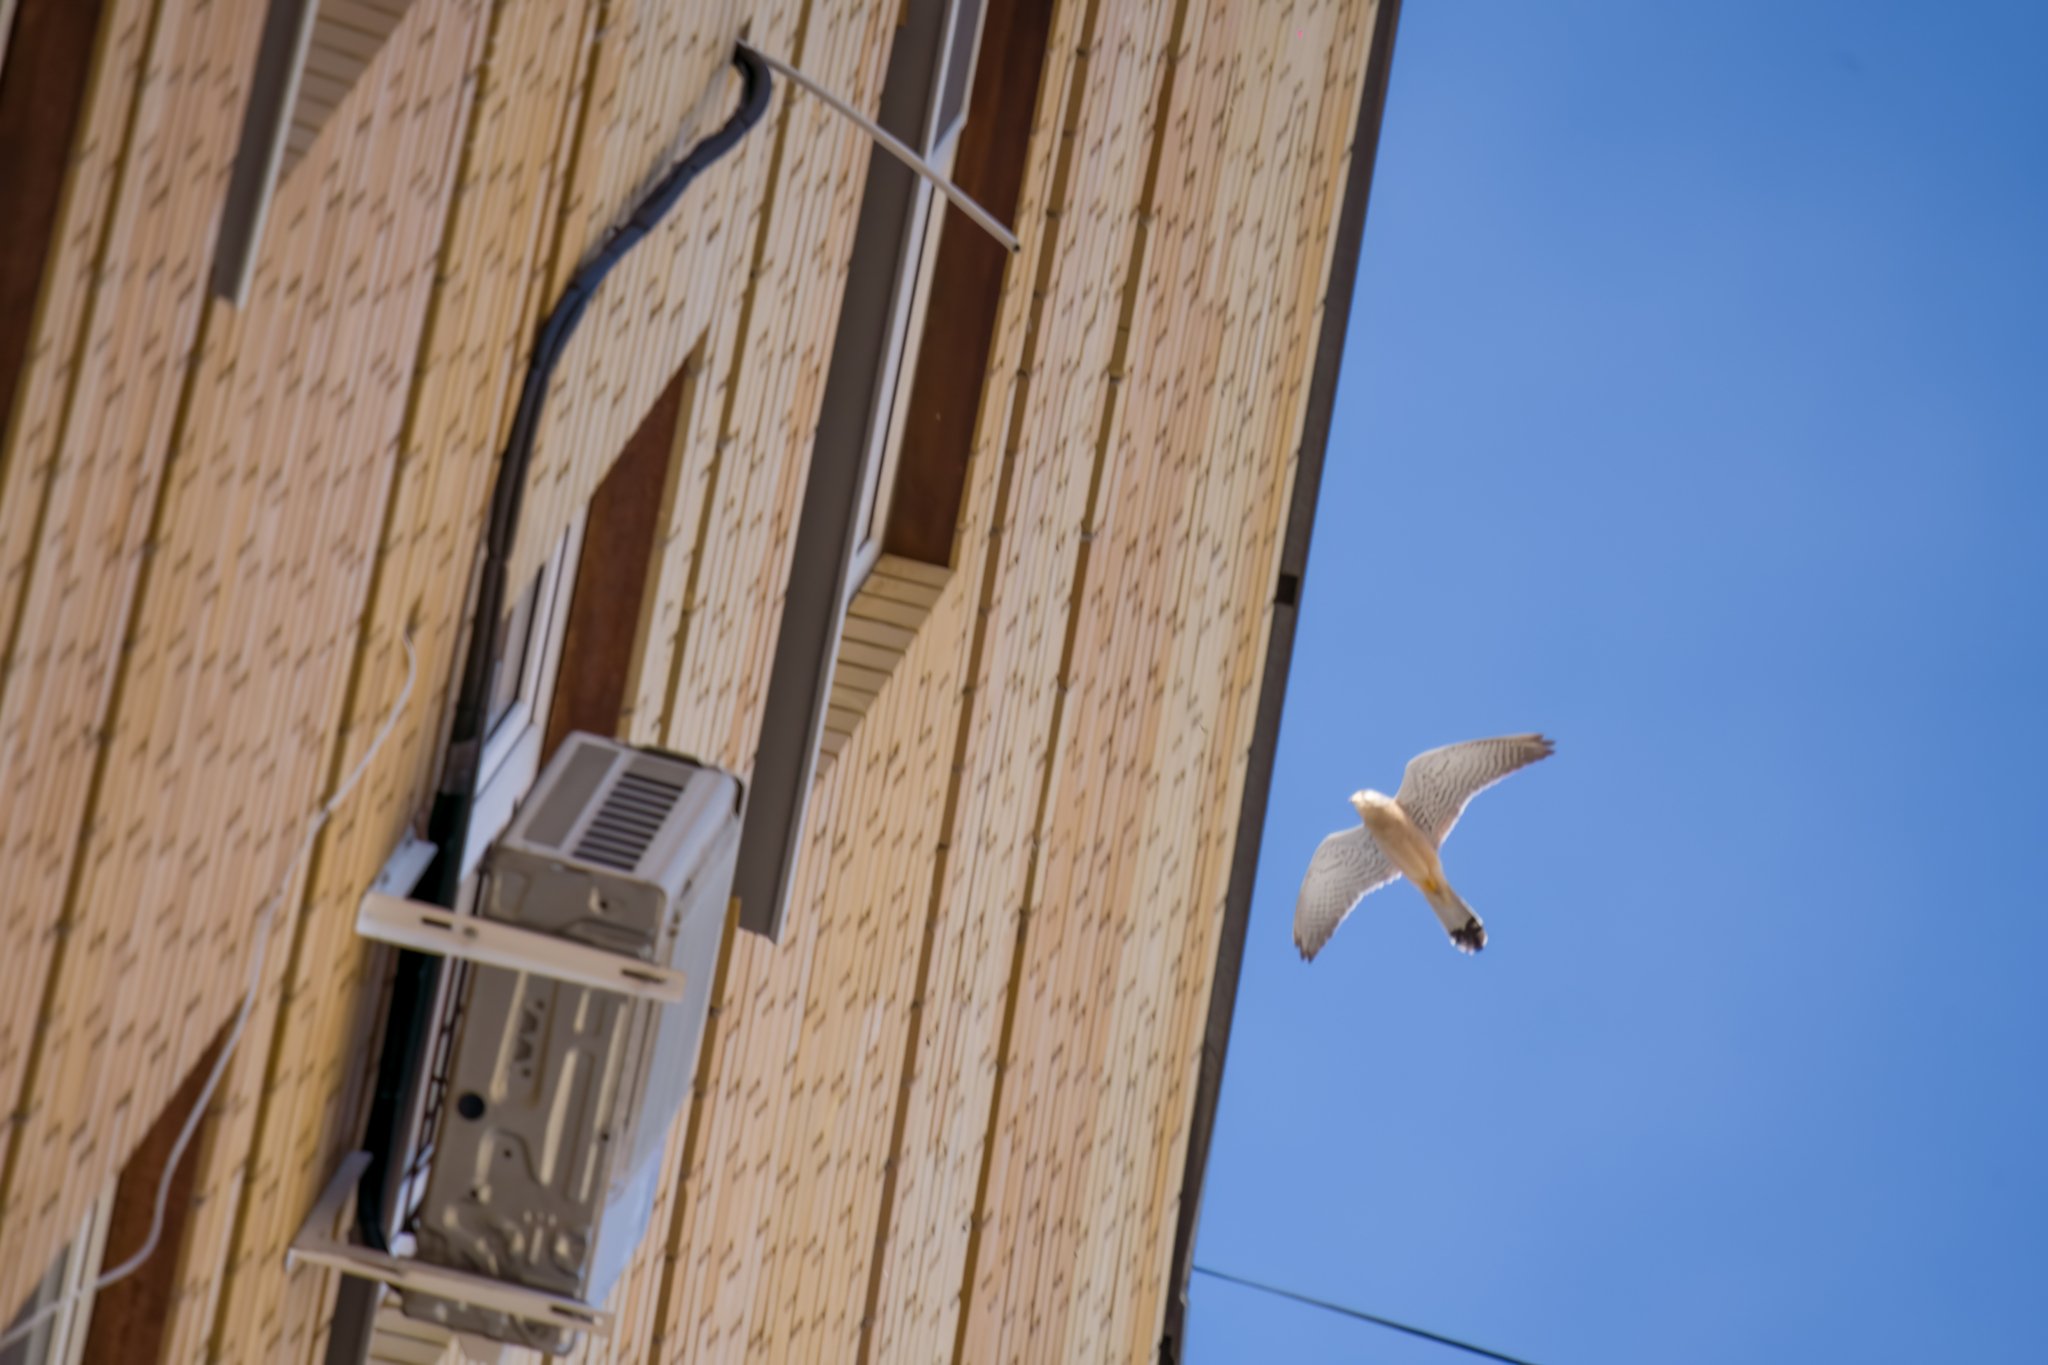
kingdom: Animalia
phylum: Chordata
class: Aves
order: Falconiformes
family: Falconidae
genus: Falco
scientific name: Falco tinnunculus
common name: Common kestrel
